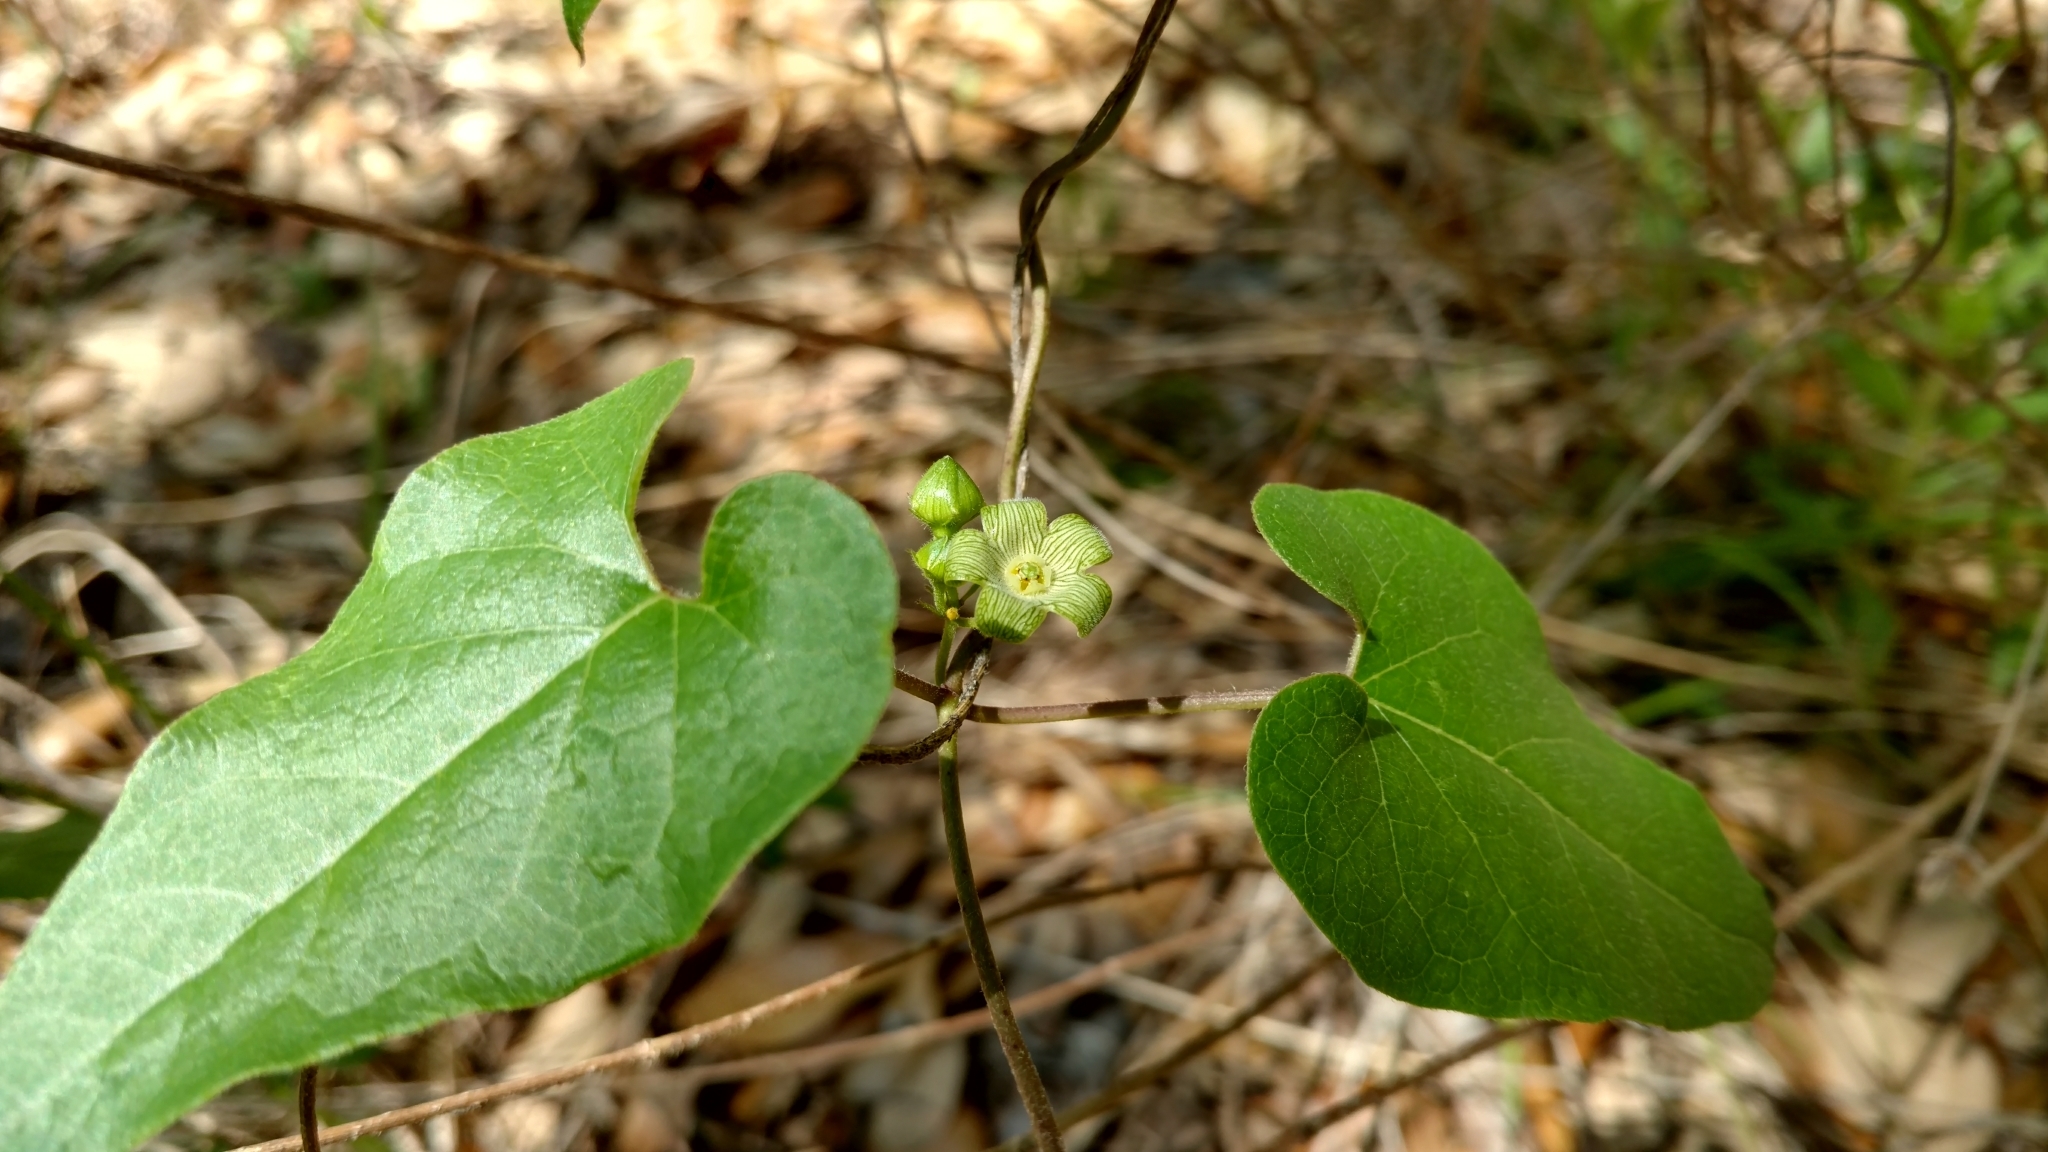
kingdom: Plantae
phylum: Tracheophyta
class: Magnoliopsida
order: Gentianales
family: Apocynaceae
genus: Matelea
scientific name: Matelea edwardsensis
